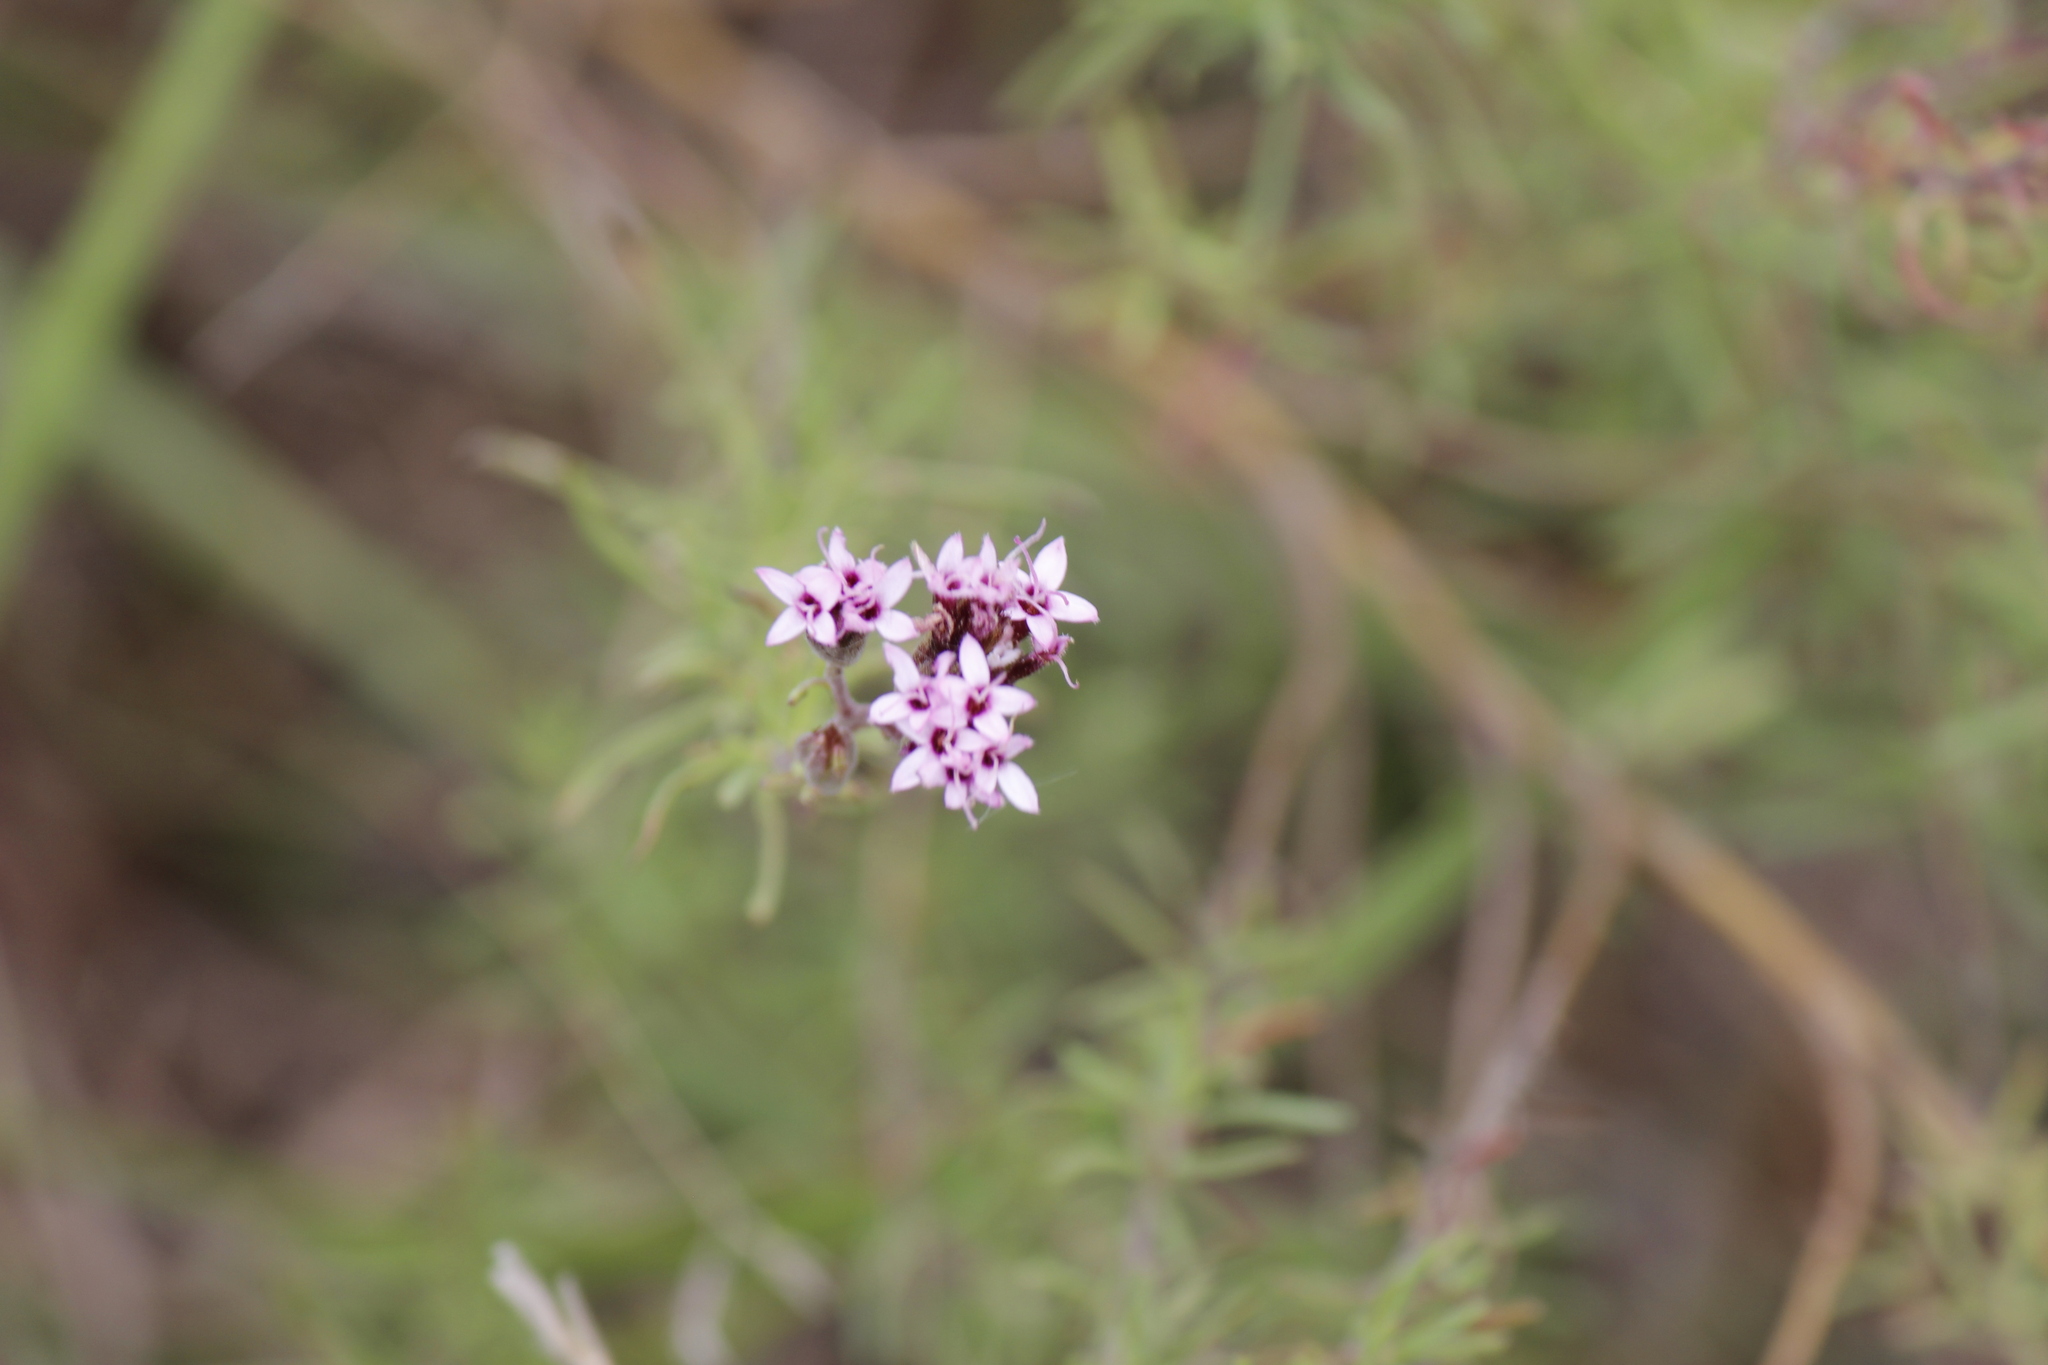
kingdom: Plantae
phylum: Tracheophyta
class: Magnoliopsida
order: Asterales
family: Asteraceae
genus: Stevia
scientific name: Stevia satureifolia
